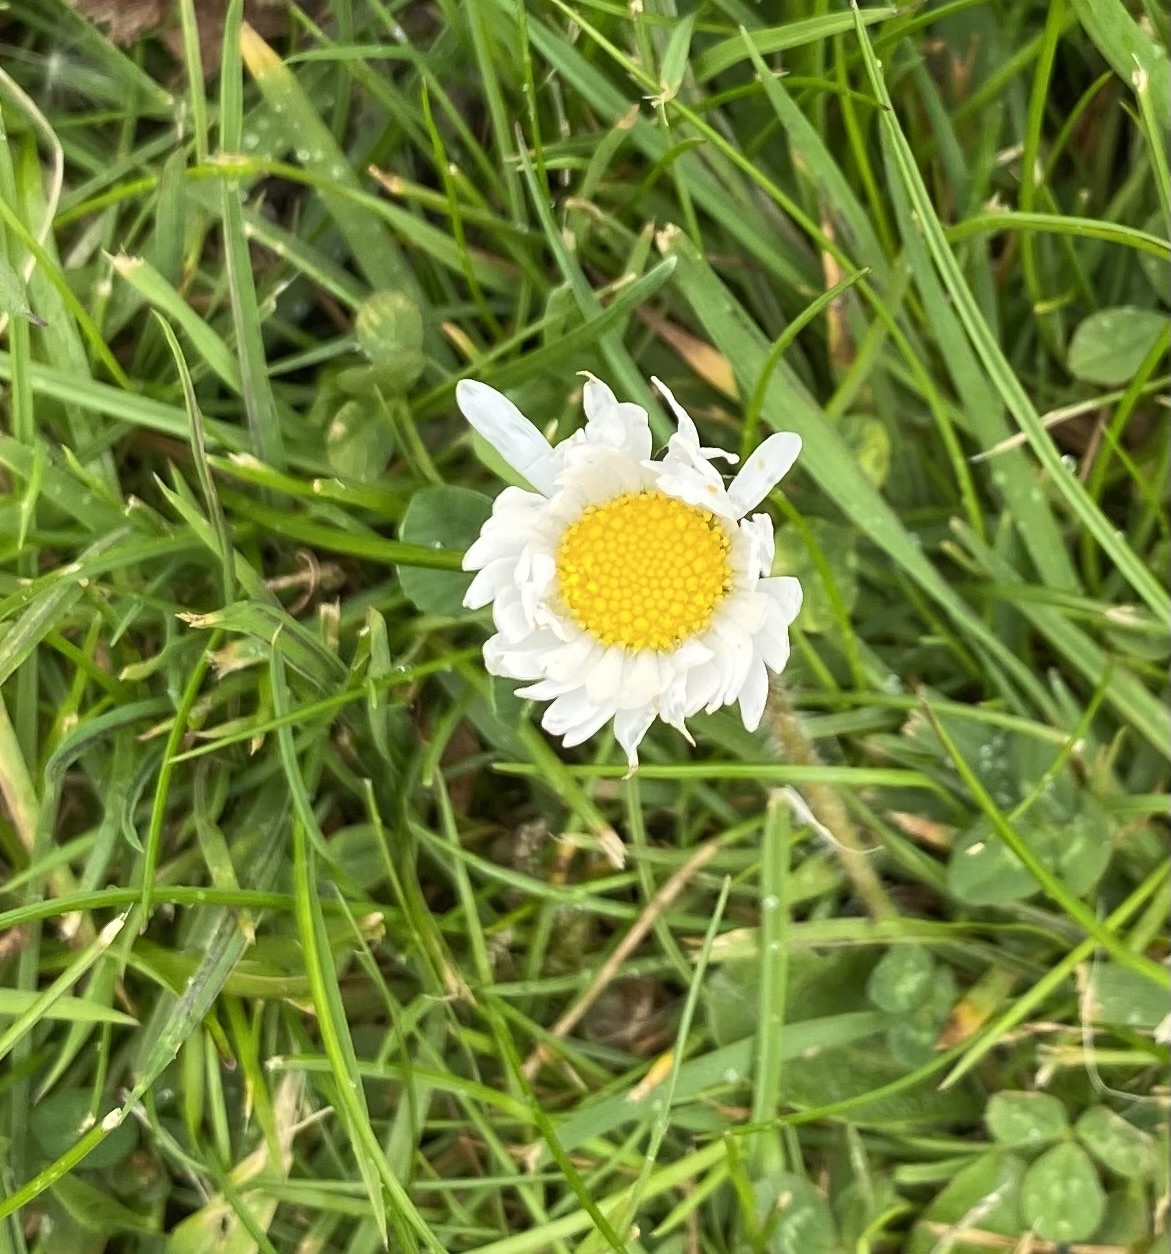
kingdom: Plantae
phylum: Tracheophyta
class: Magnoliopsida
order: Asterales
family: Asteraceae
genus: Bellis
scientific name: Bellis perennis
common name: Lawndaisy
